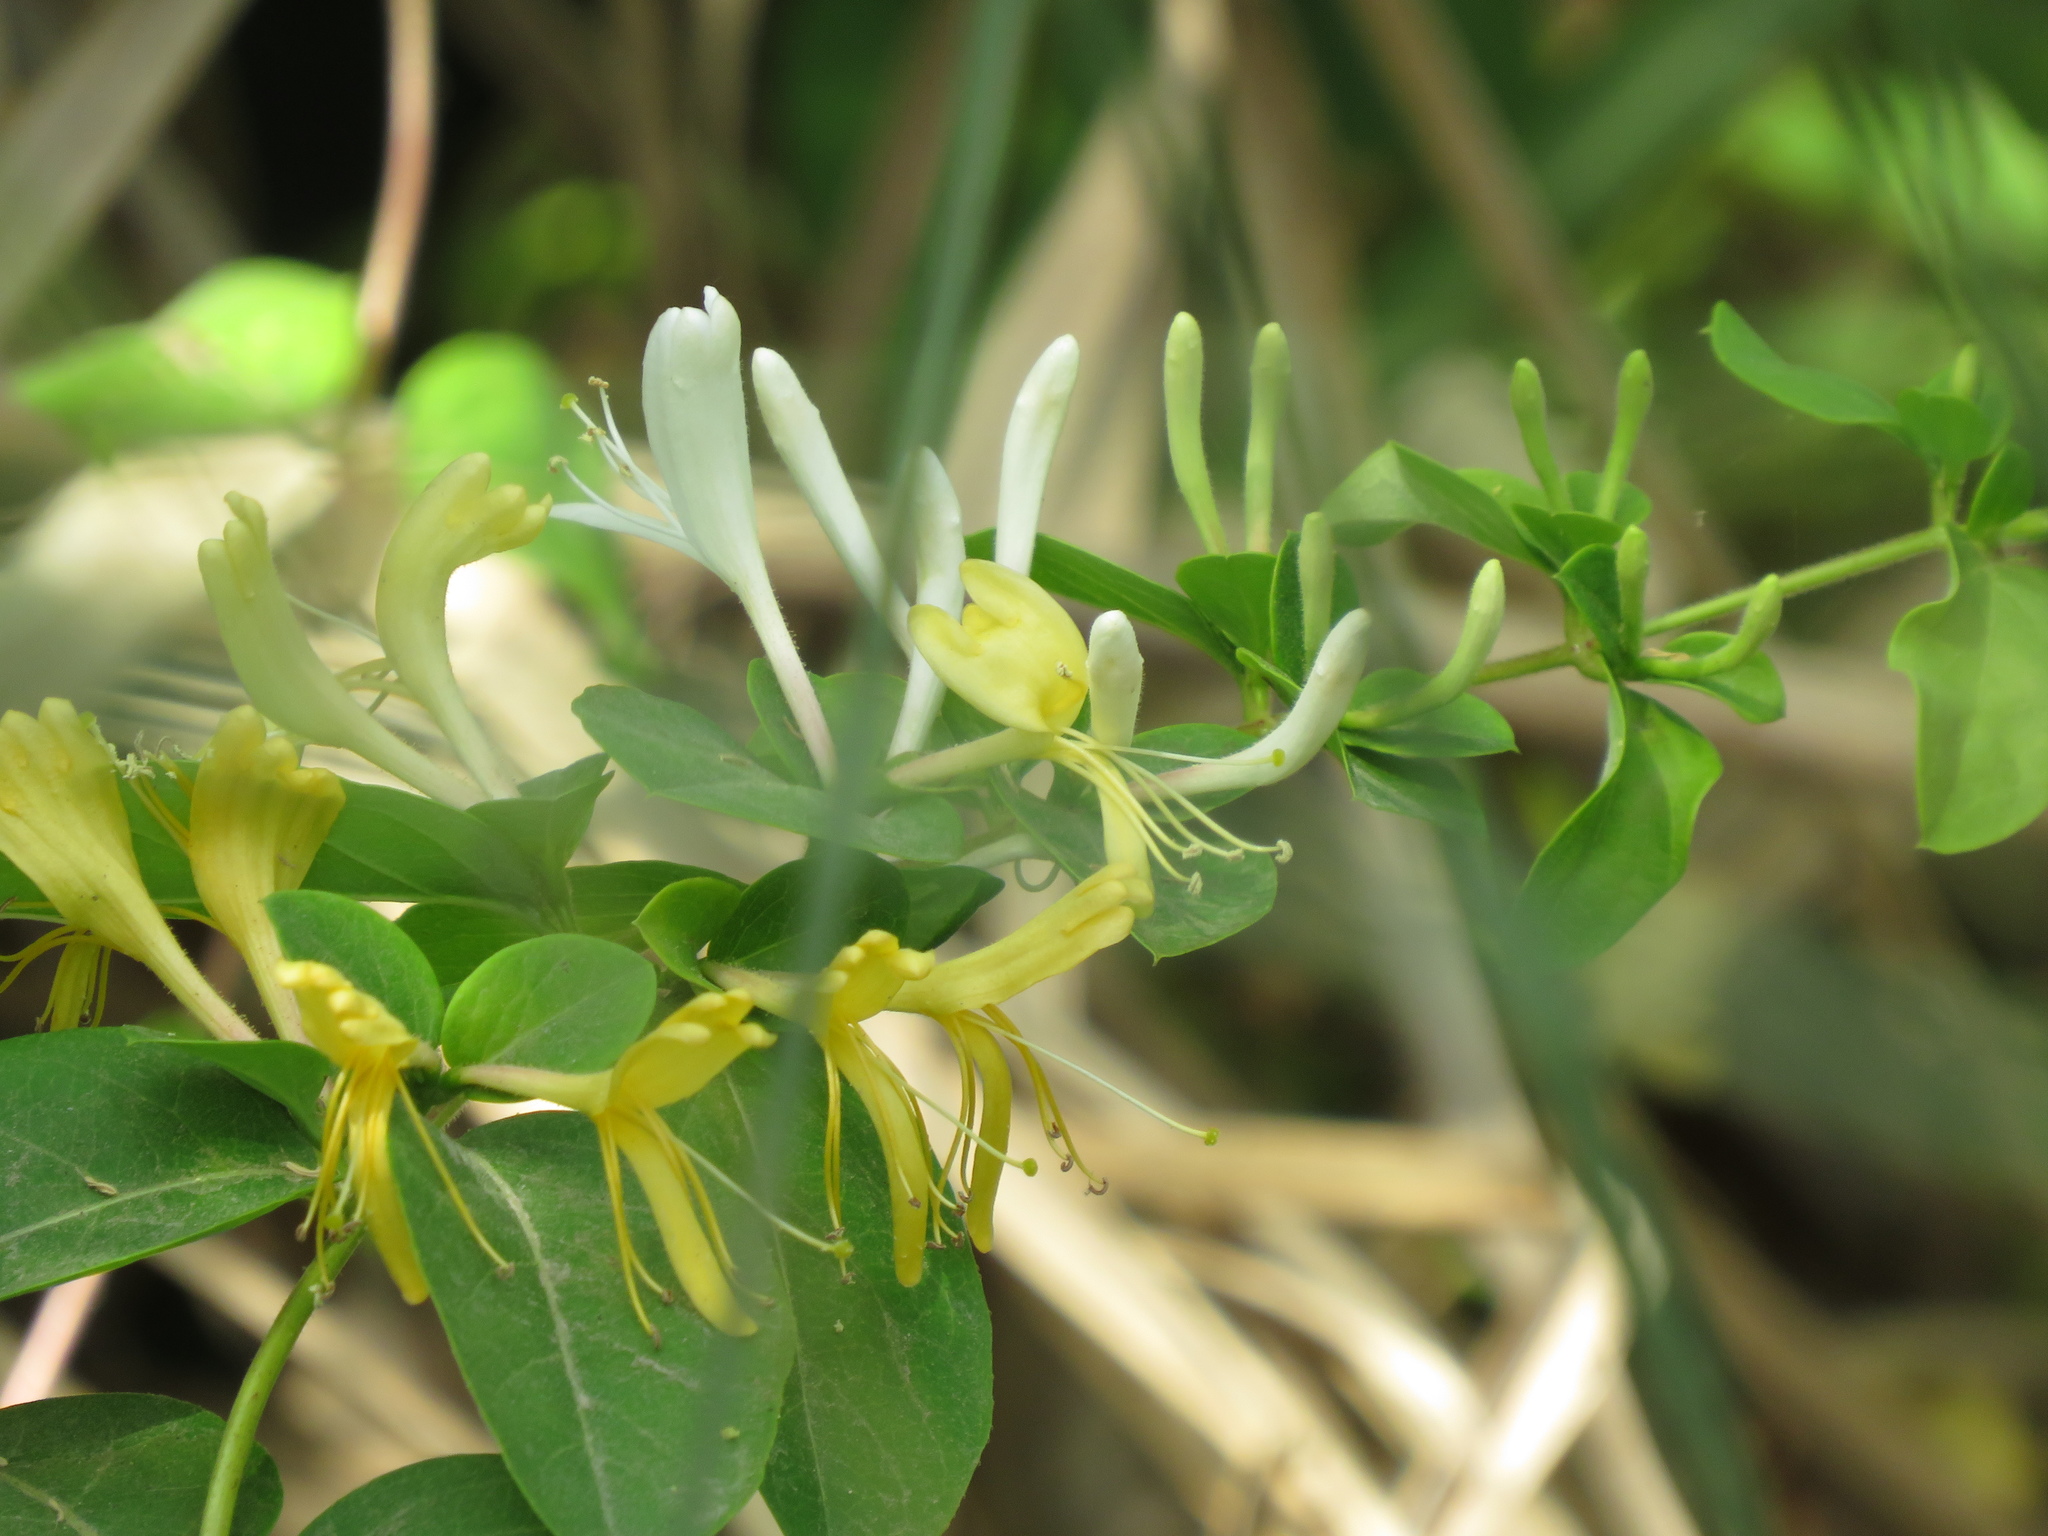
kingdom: Plantae
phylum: Tracheophyta
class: Magnoliopsida
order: Dipsacales
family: Caprifoliaceae
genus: Lonicera
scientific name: Lonicera japonica
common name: Japanese honeysuckle
